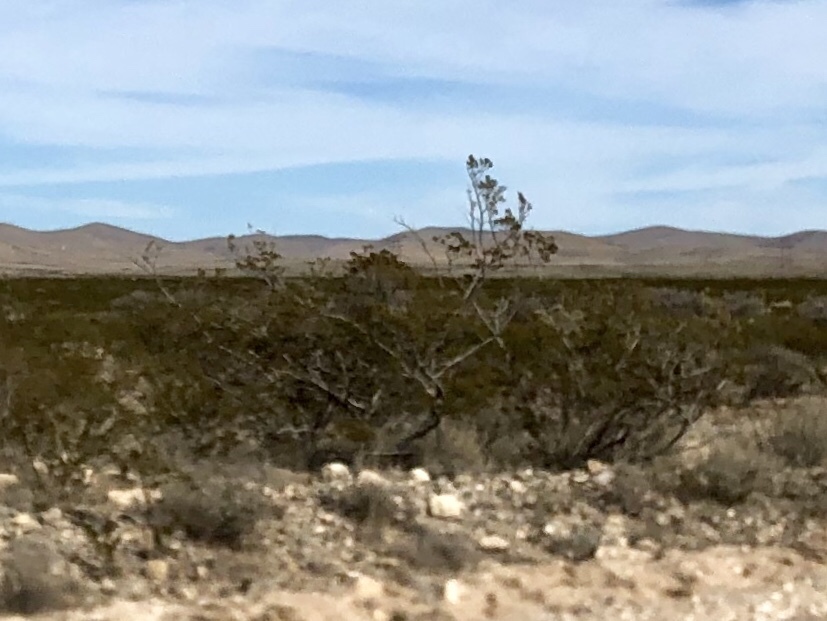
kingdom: Plantae
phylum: Tracheophyta
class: Magnoliopsida
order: Zygophyllales
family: Zygophyllaceae
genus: Larrea
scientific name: Larrea tridentata
